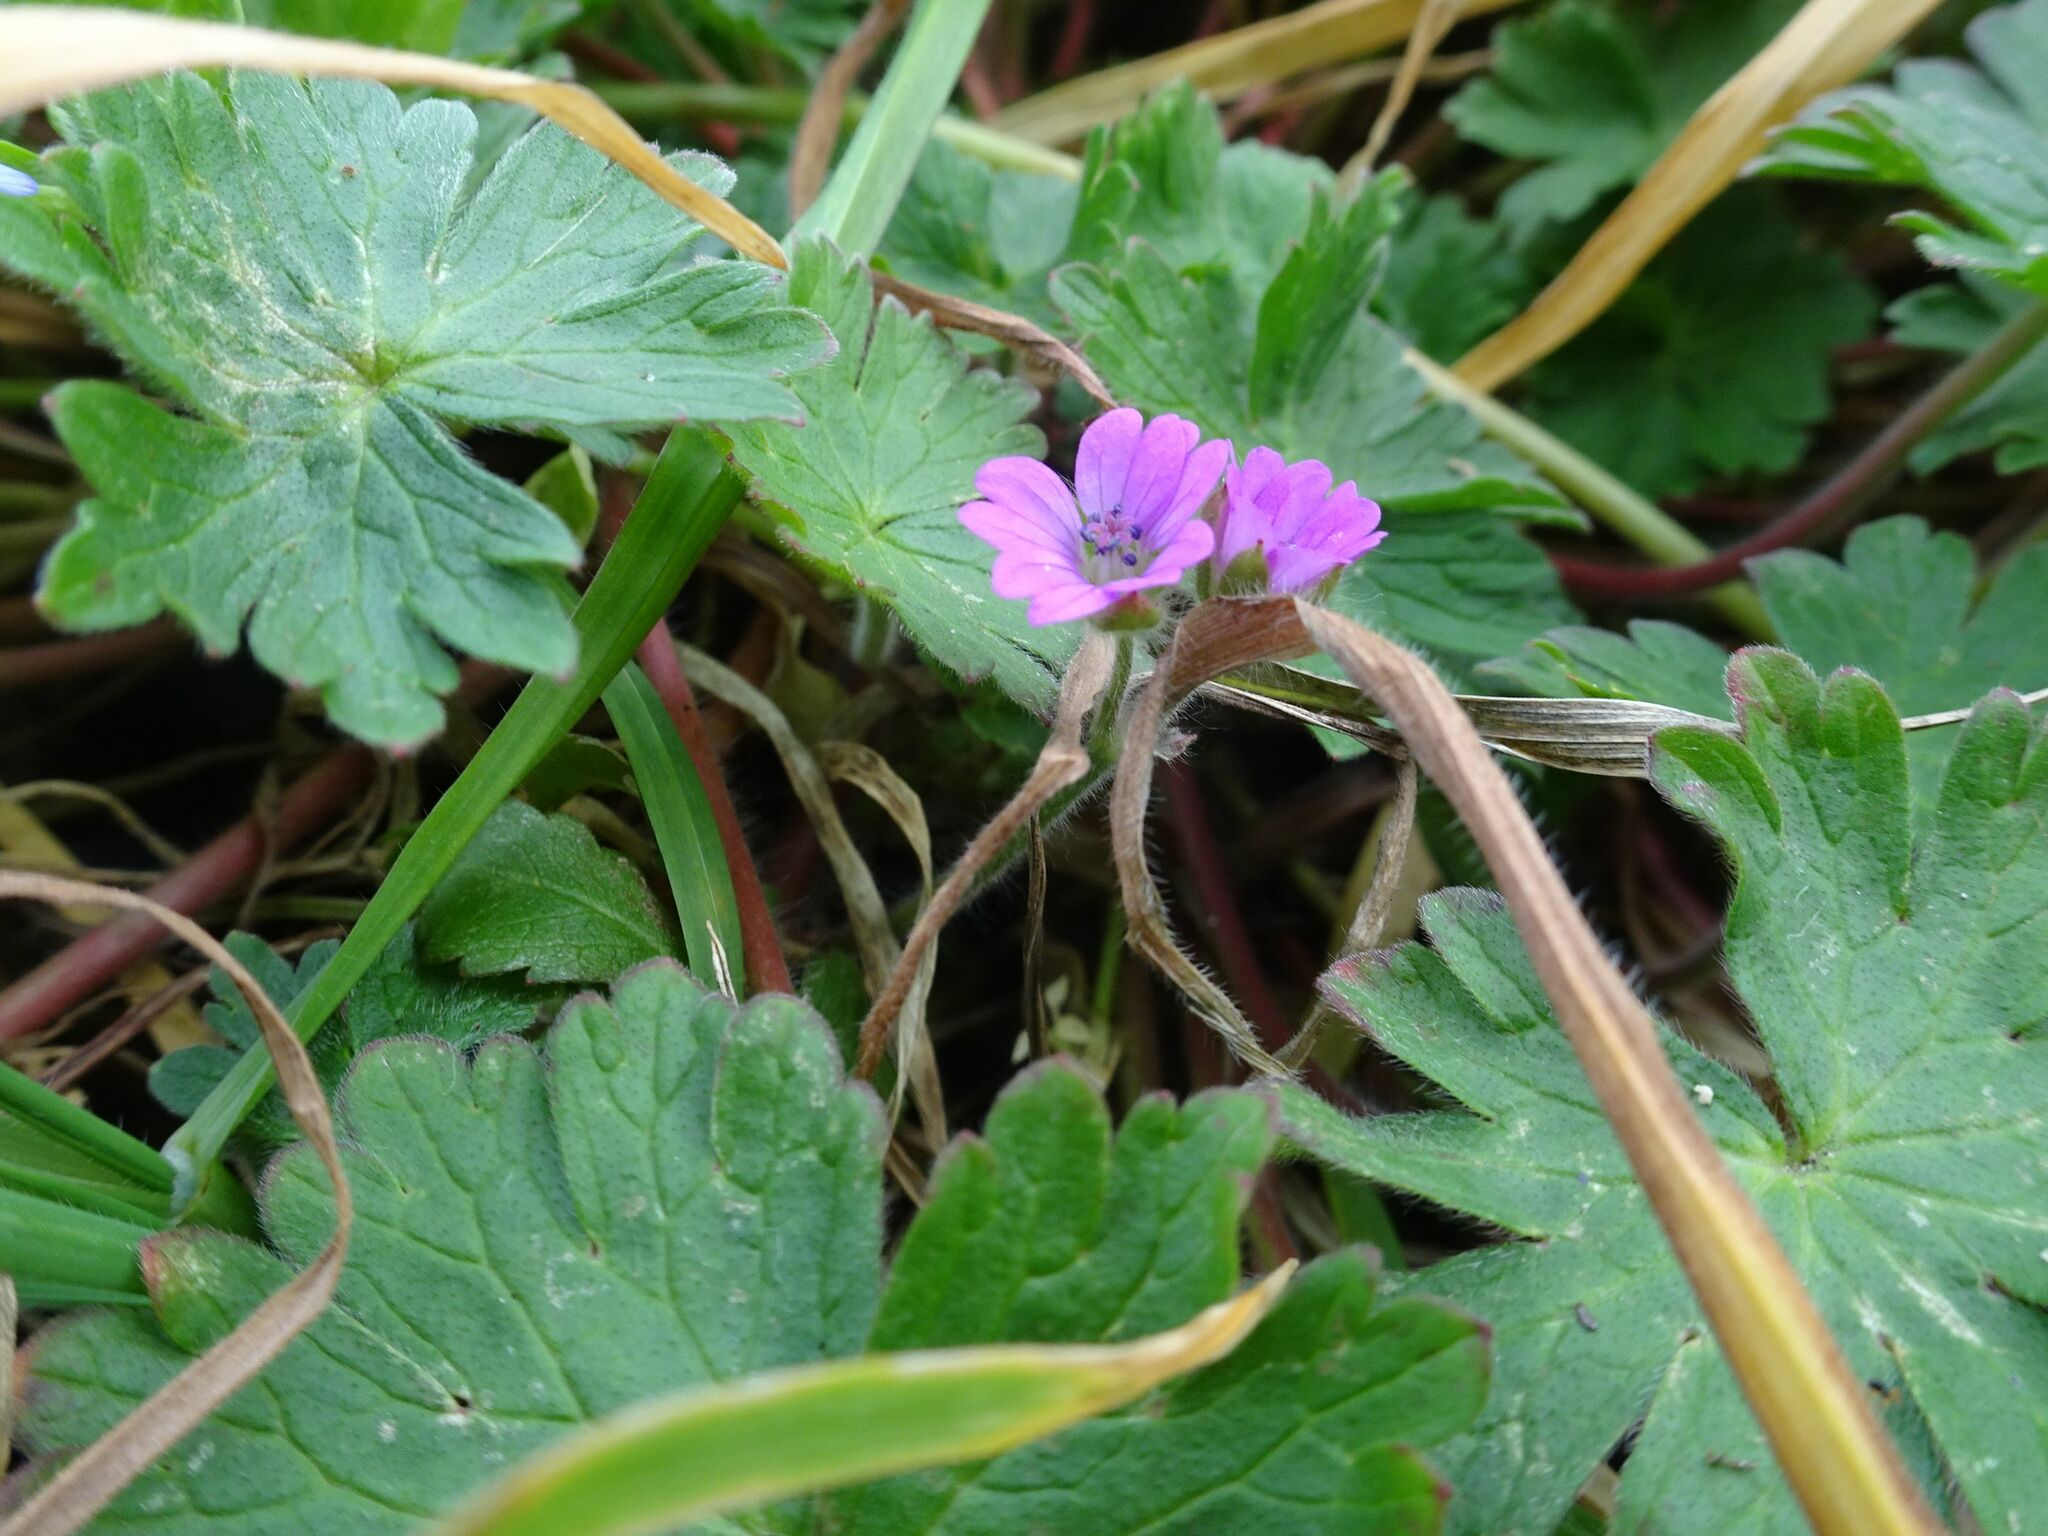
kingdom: Plantae
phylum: Tracheophyta
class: Magnoliopsida
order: Geraniales
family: Geraniaceae
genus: Geranium
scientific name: Geranium molle
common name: Dove's-foot crane's-bill
